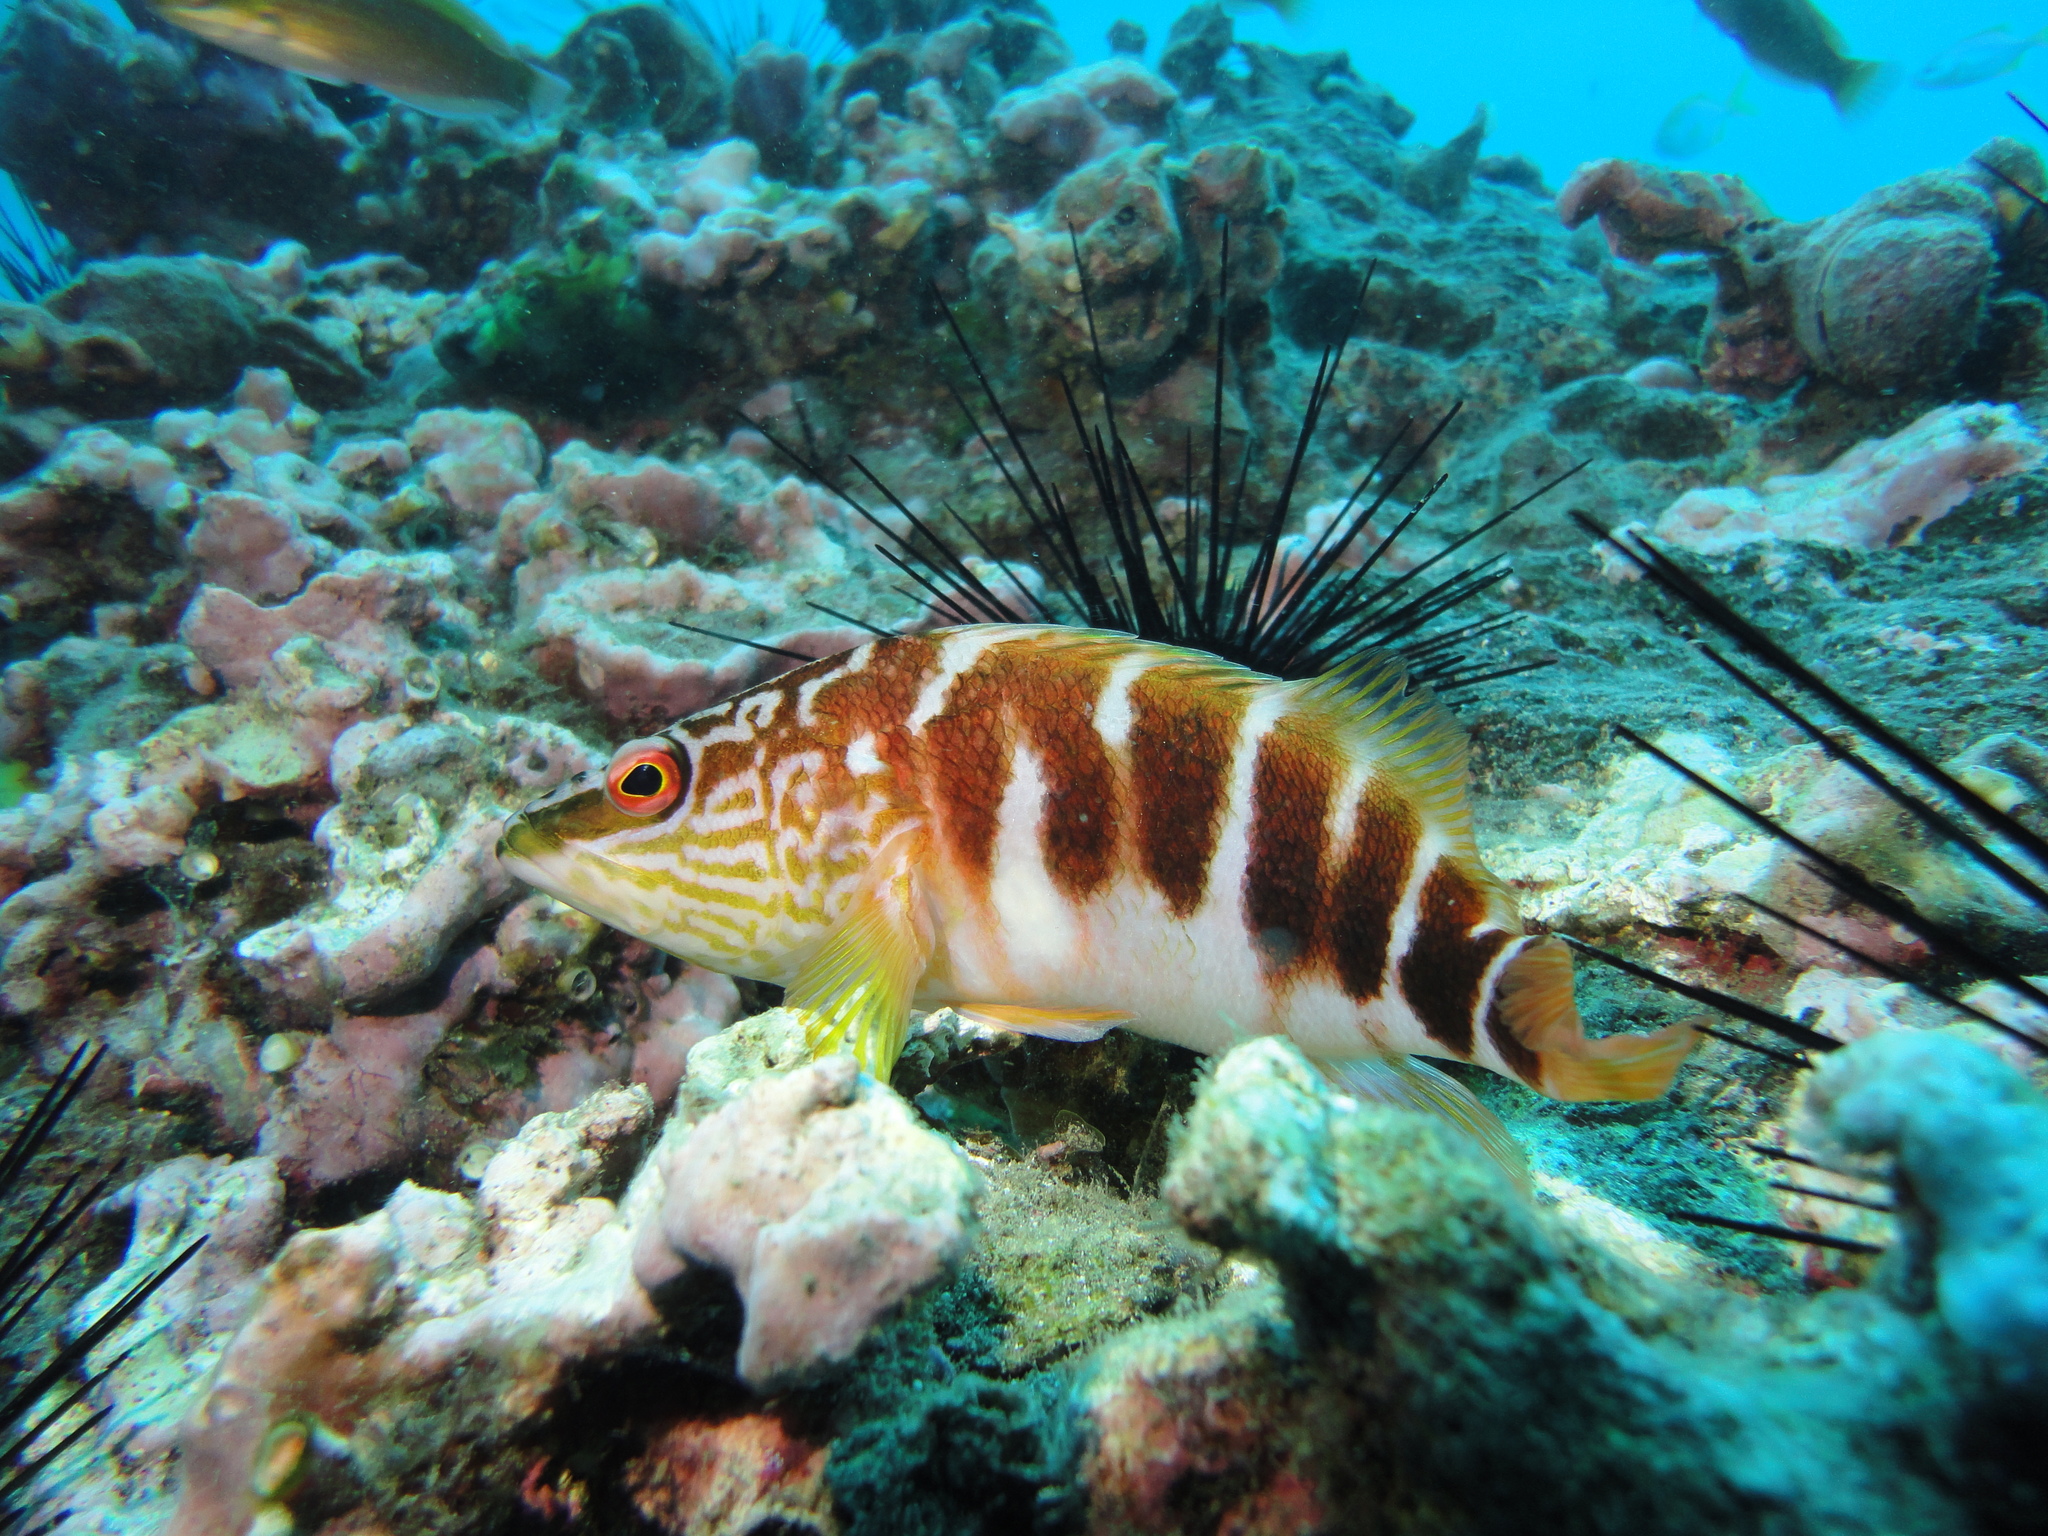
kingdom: Animalia
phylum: Chordata
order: Perciformes
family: Serranidae
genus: Hypoplectrodes
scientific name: Hypoplectrodes semicinctum
